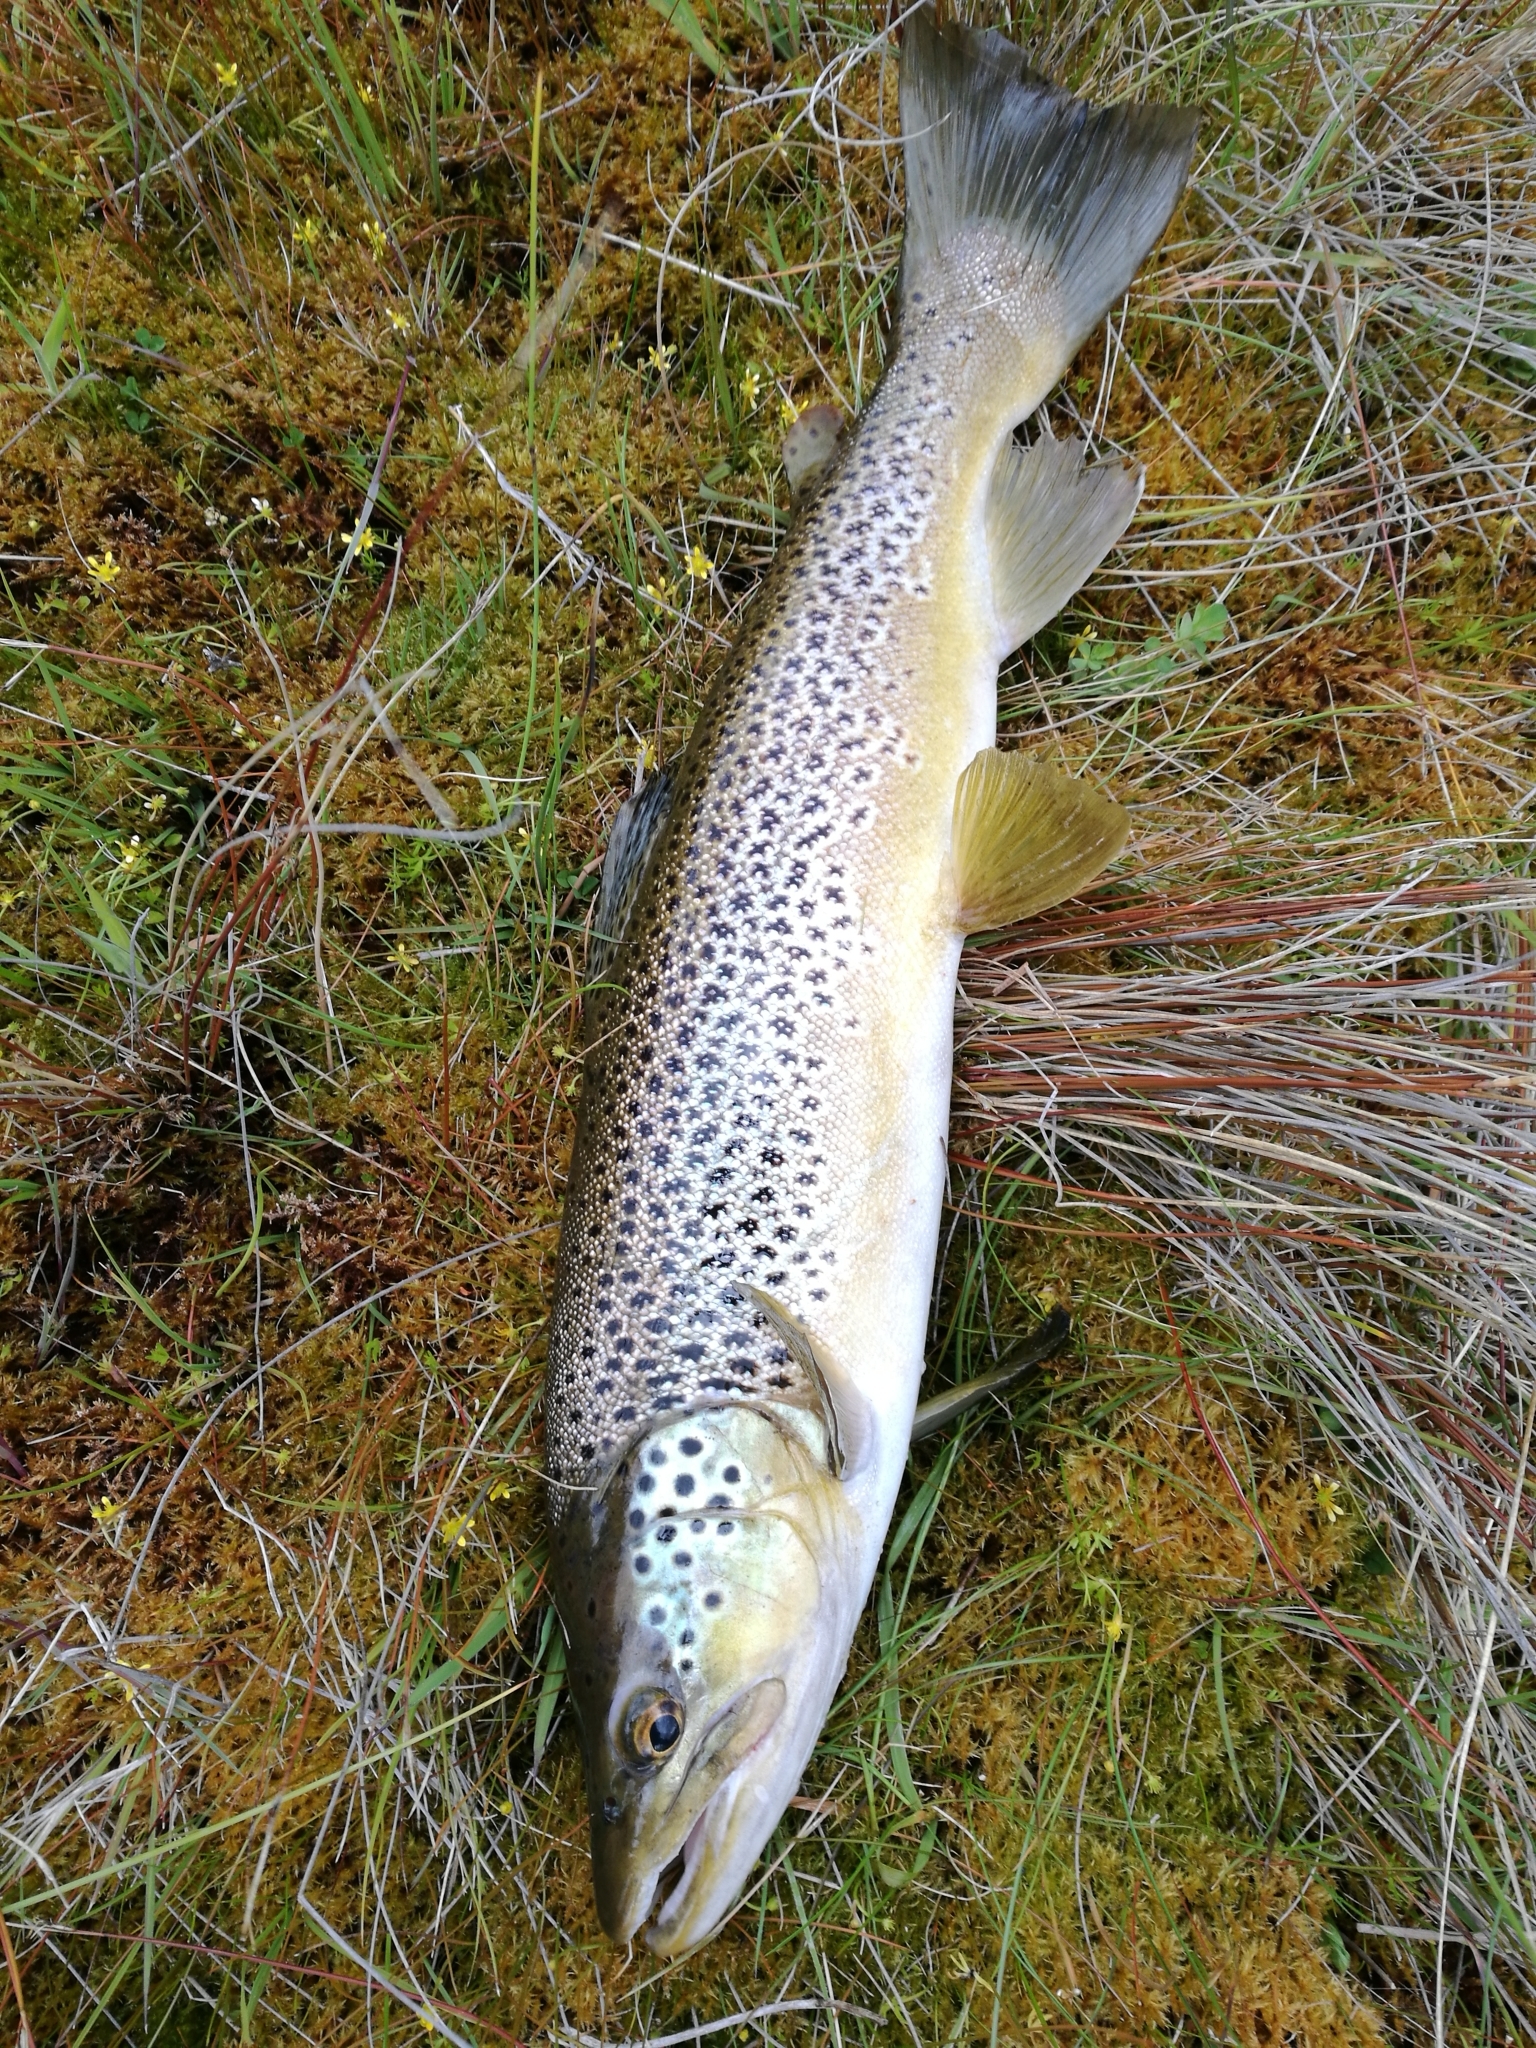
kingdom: Animalia
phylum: Chordata
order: Salmoniformes
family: Salmonidae
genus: Salmo
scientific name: Salmo trutta
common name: Brown trout
